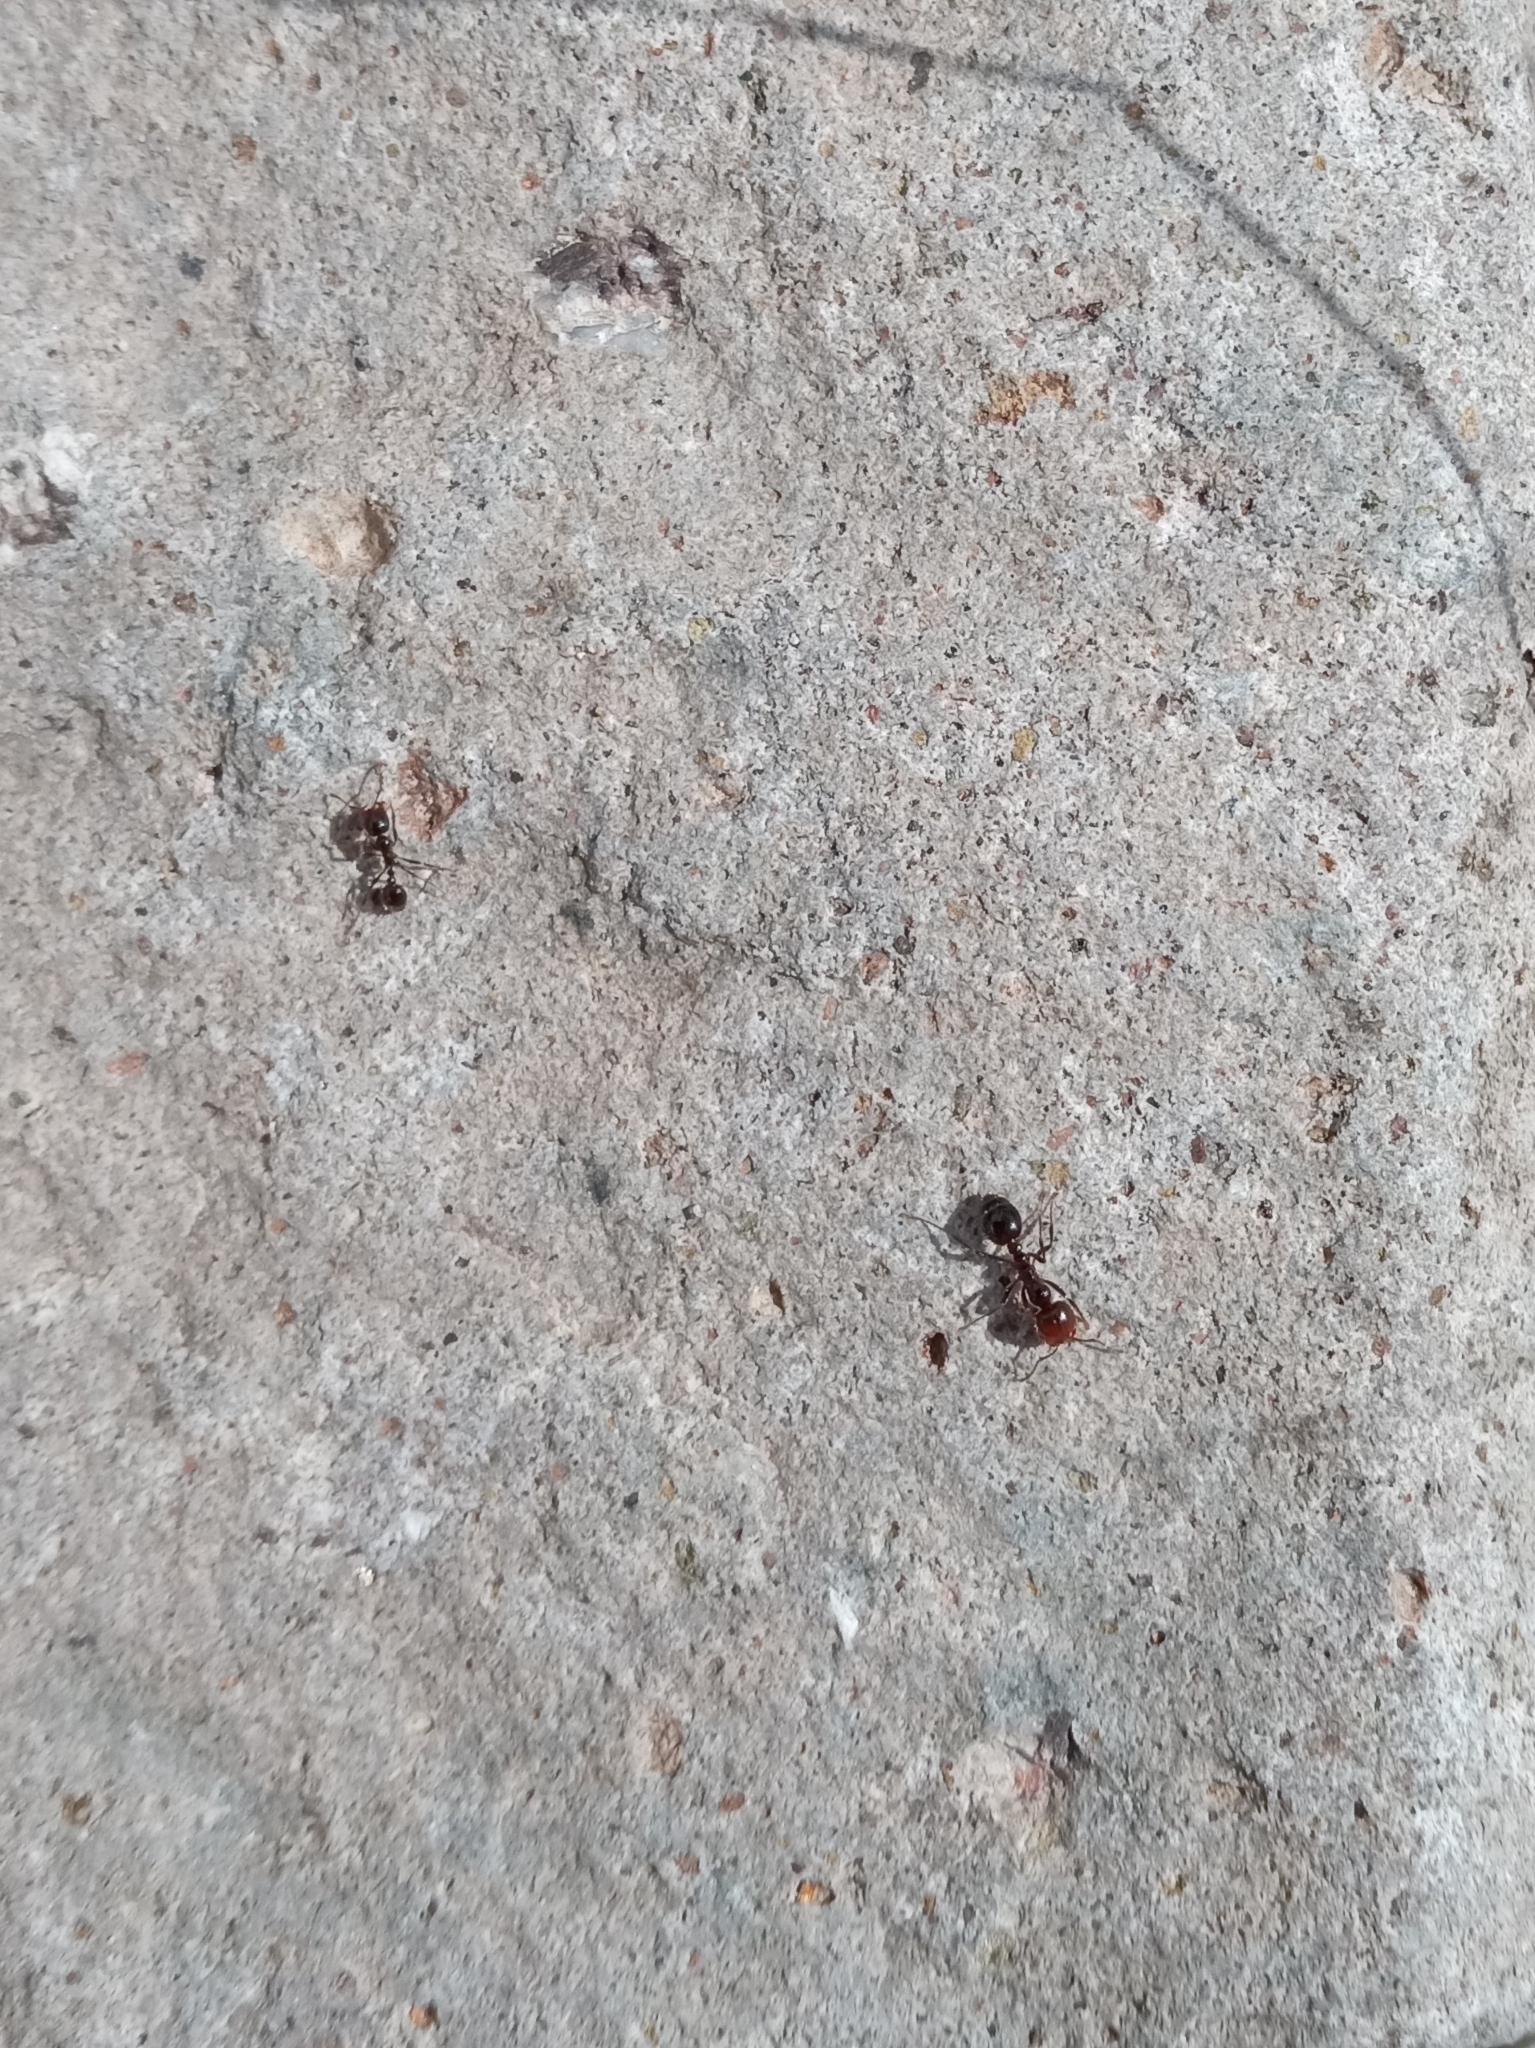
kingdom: Animalia
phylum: Arthropoda
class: Insecta
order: Hymenoptera
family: Formicidae
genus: Solenopsis
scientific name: Solenopsis xyloni
